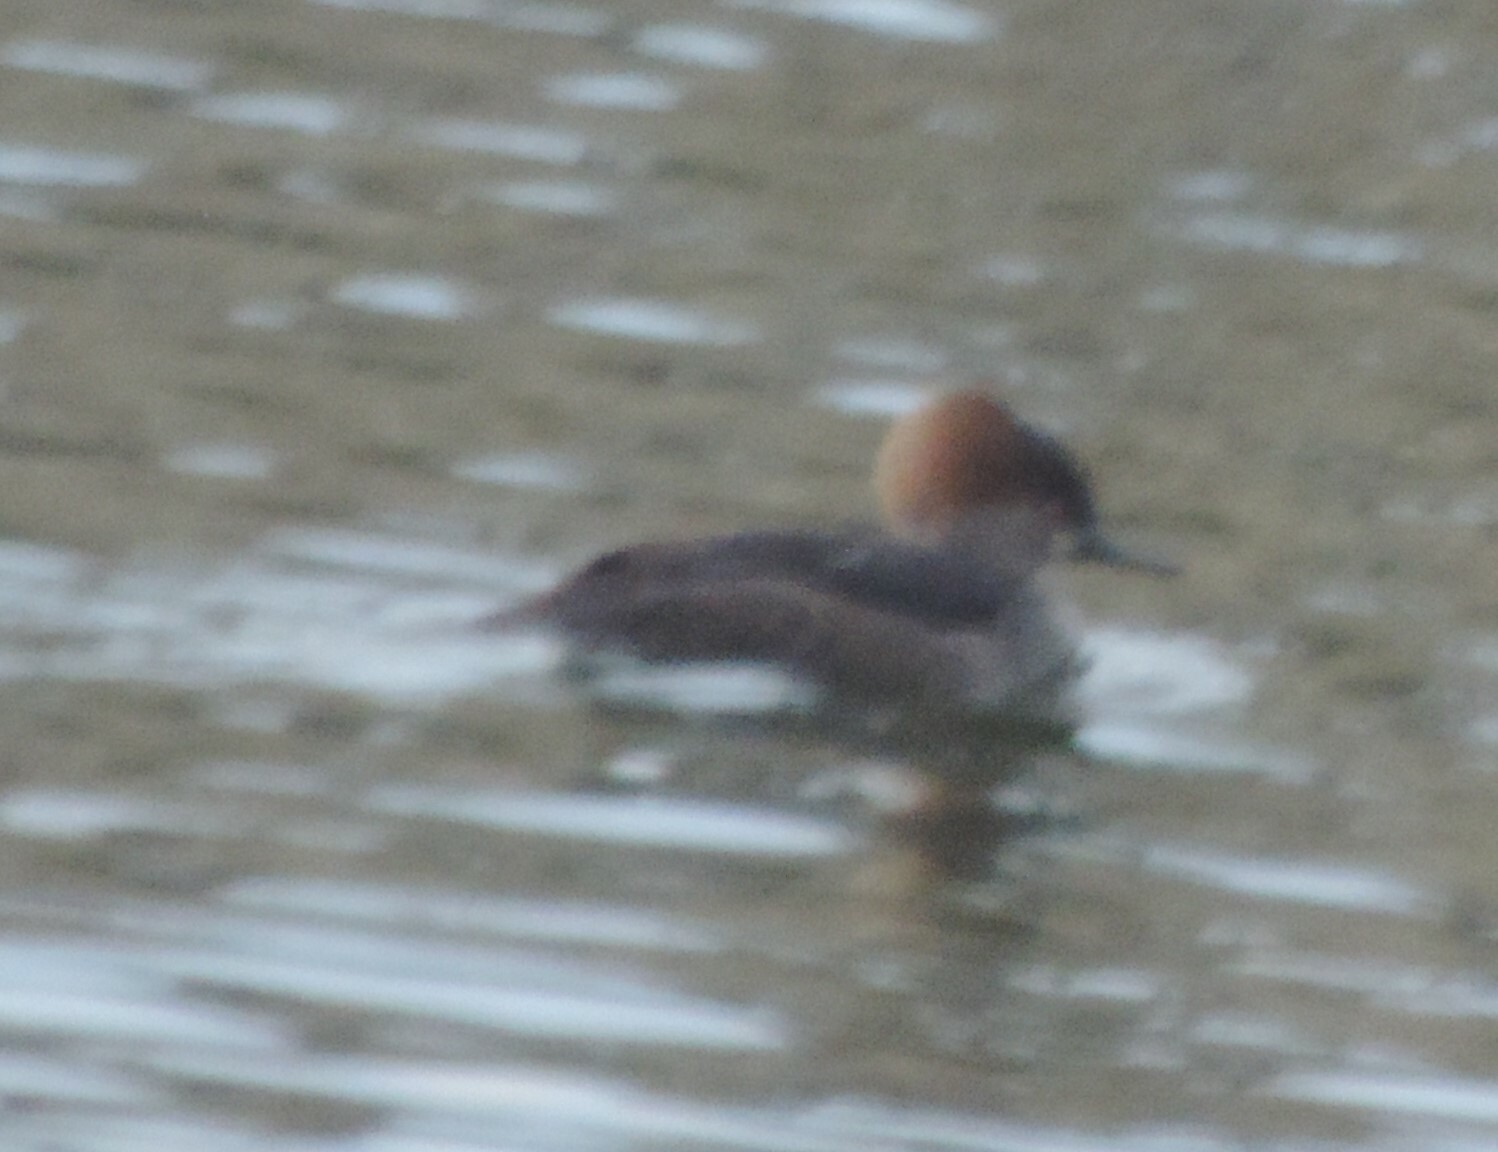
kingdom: Animalia
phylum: Chordata
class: Aves
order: Anseriformes
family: Anatidae
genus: Lophodytes
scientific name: Lophodytes cucullatus
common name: Hooded merganser
